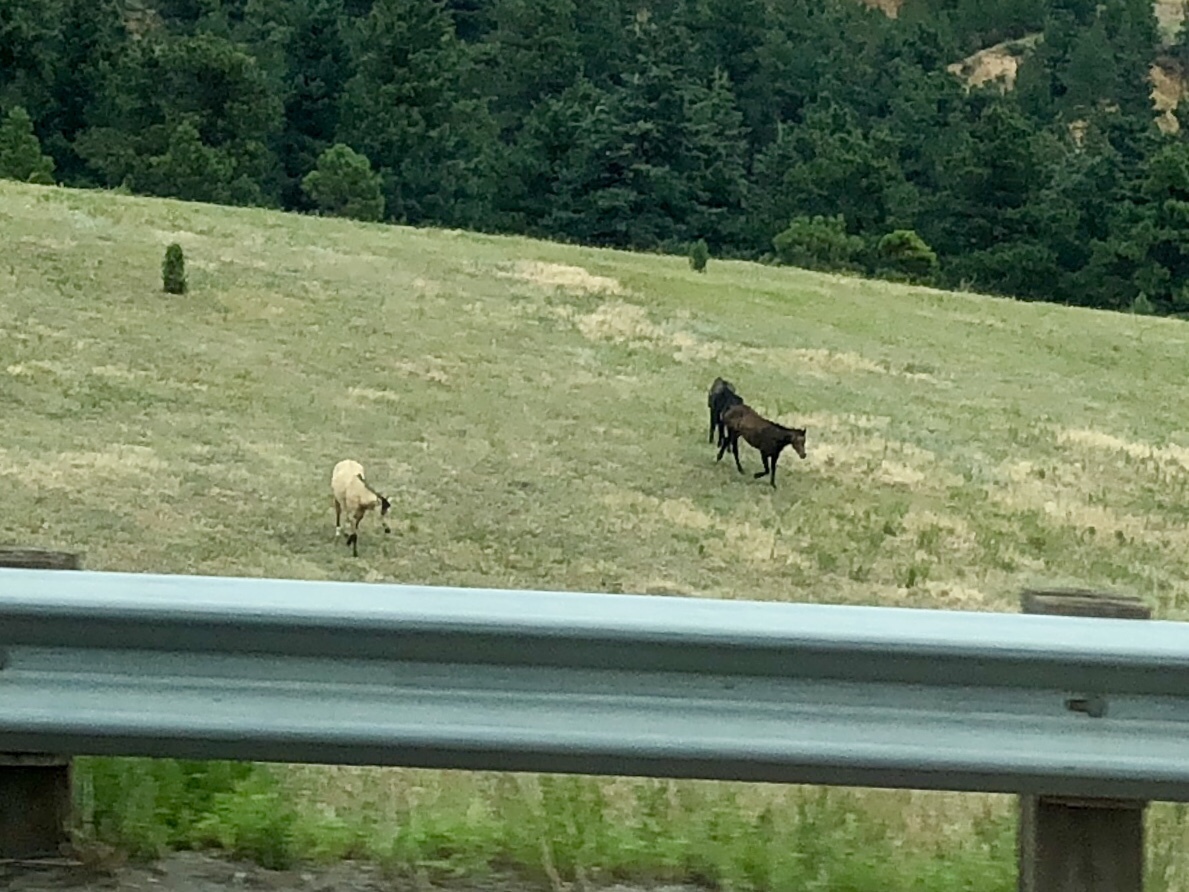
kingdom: Animalia
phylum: Chordata
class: Mammalia
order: Perissodactyla
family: Equidae
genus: Equus
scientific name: Equus caballus
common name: Horse
